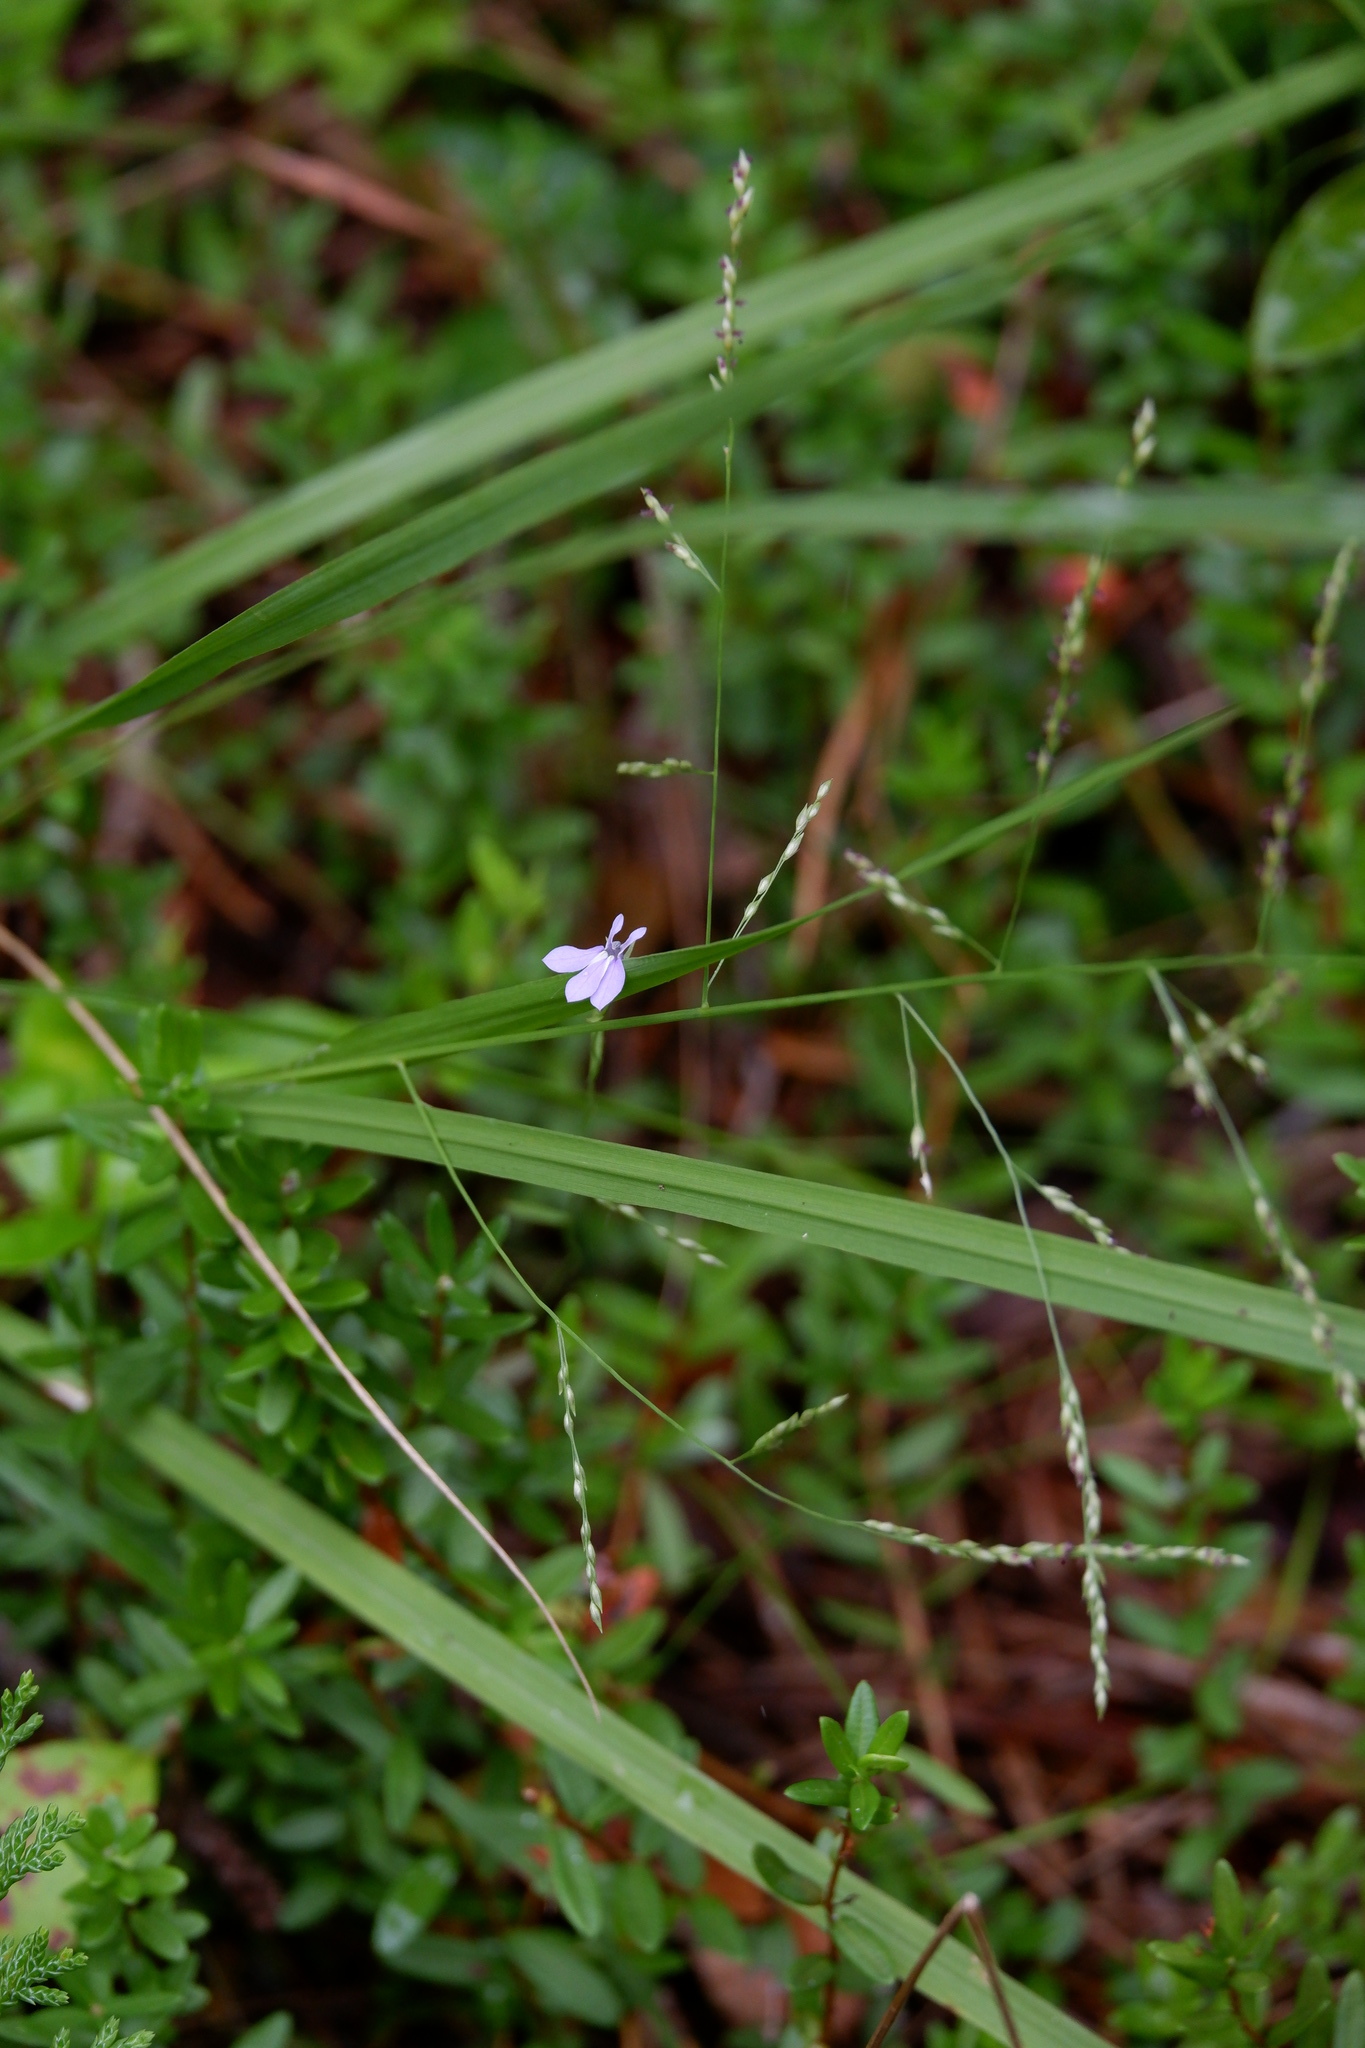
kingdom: Plantae
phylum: Tracheophyta
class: Magnoliopsida
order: Asterales
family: Campanulaceae
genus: Lobelia
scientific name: Lobelia nuttallii
